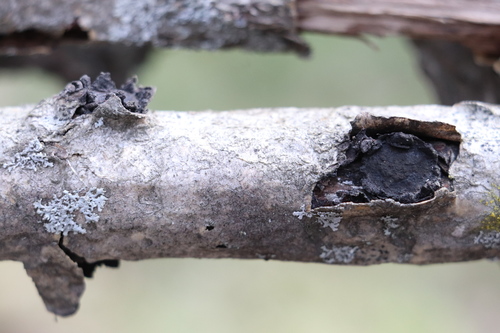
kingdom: Fungi
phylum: Ascomycota
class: Sordariomycetes
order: Xylariales
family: Graphostromataceae
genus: Biscogniauxia
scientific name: Biscogniauxia repanda
